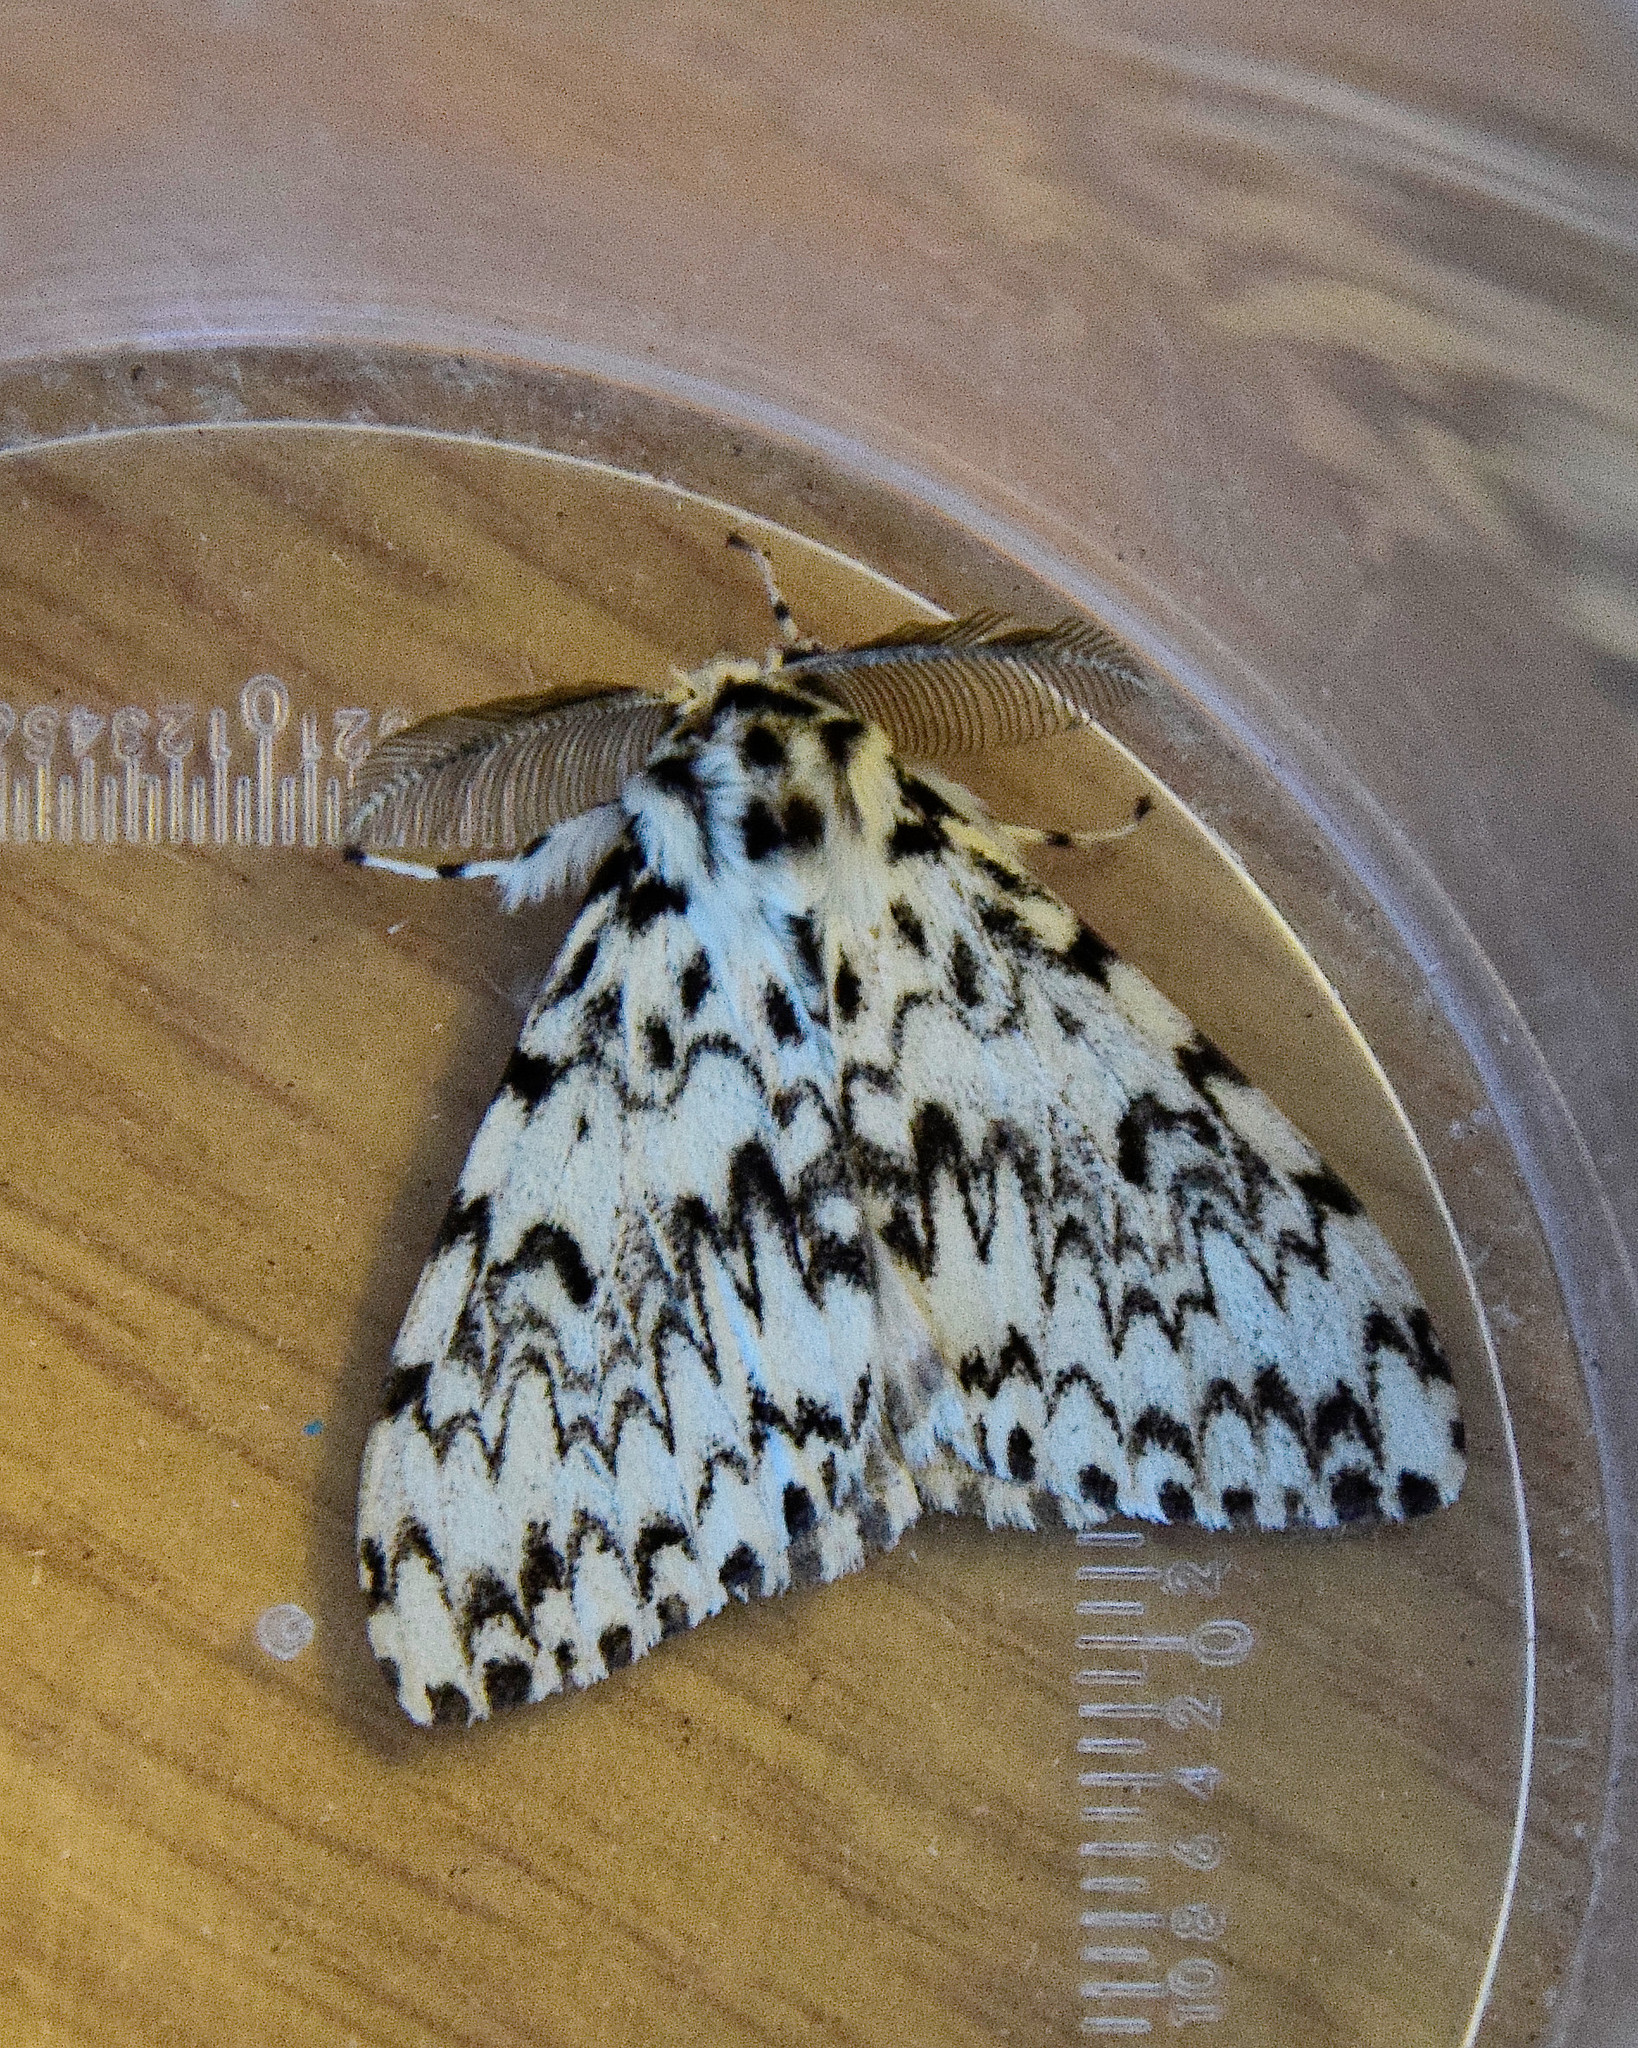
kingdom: Animalia
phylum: Arthropoda
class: Insecta
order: Lepidoptera
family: Erebidae
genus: Lymantria
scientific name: Lymantria monacha
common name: Black arches
